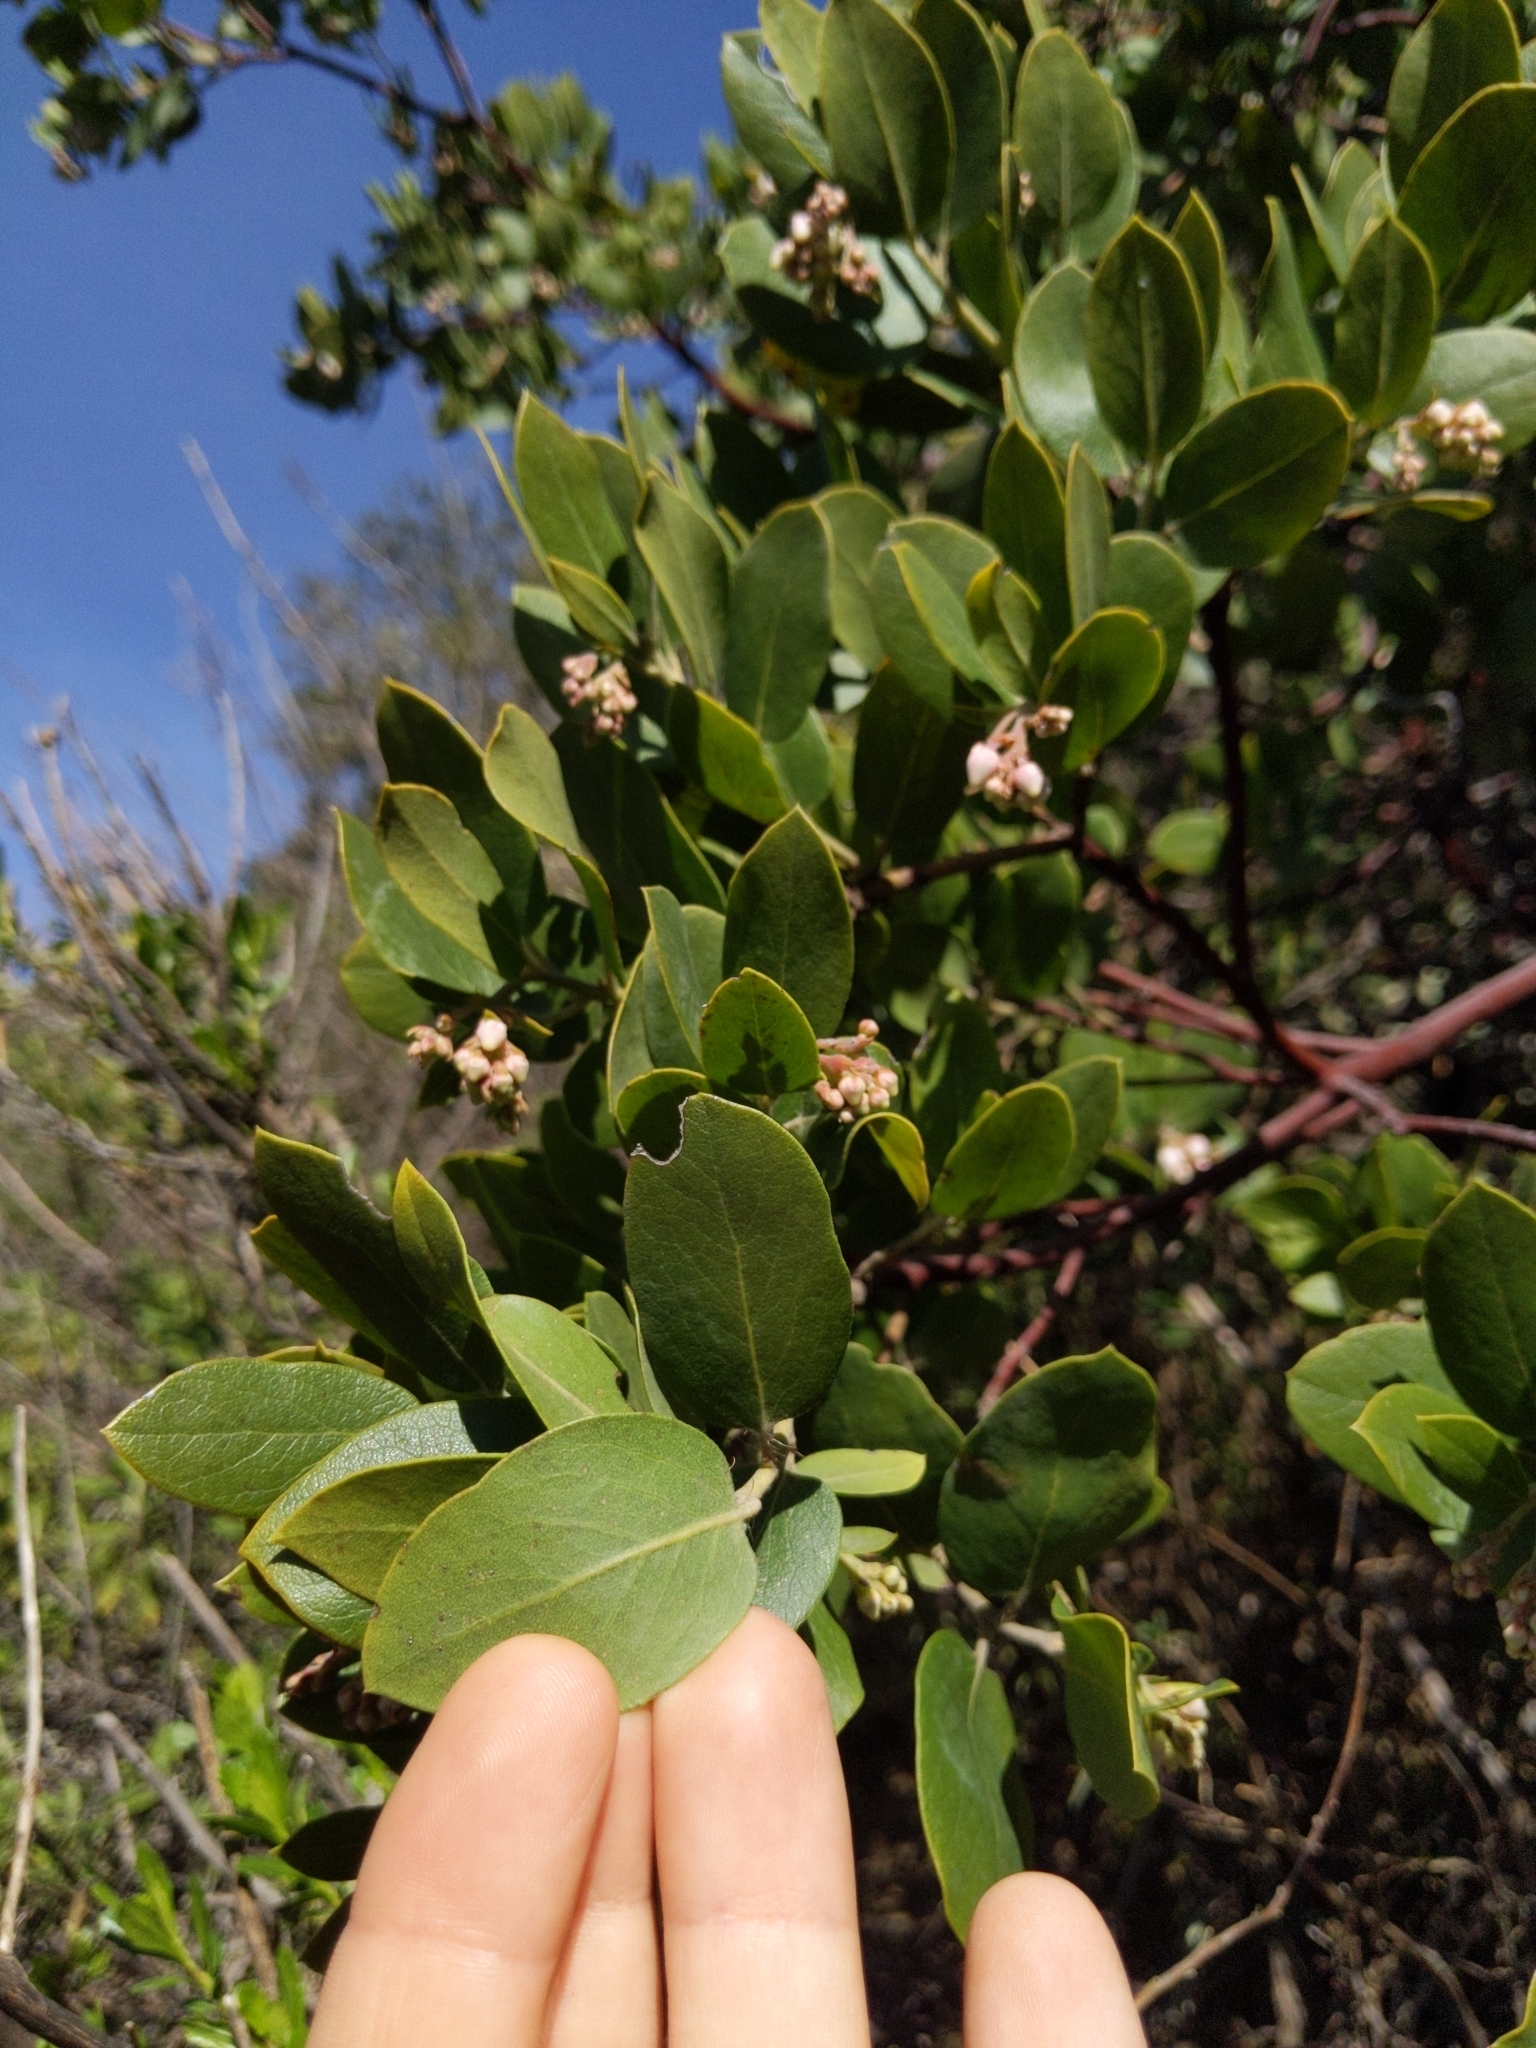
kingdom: Plantae
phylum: Tracheophyta
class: Magnoliopsida
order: Ericales
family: Ericaceae
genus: Arctostaphylos
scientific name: Arctostaphylos crustacea
